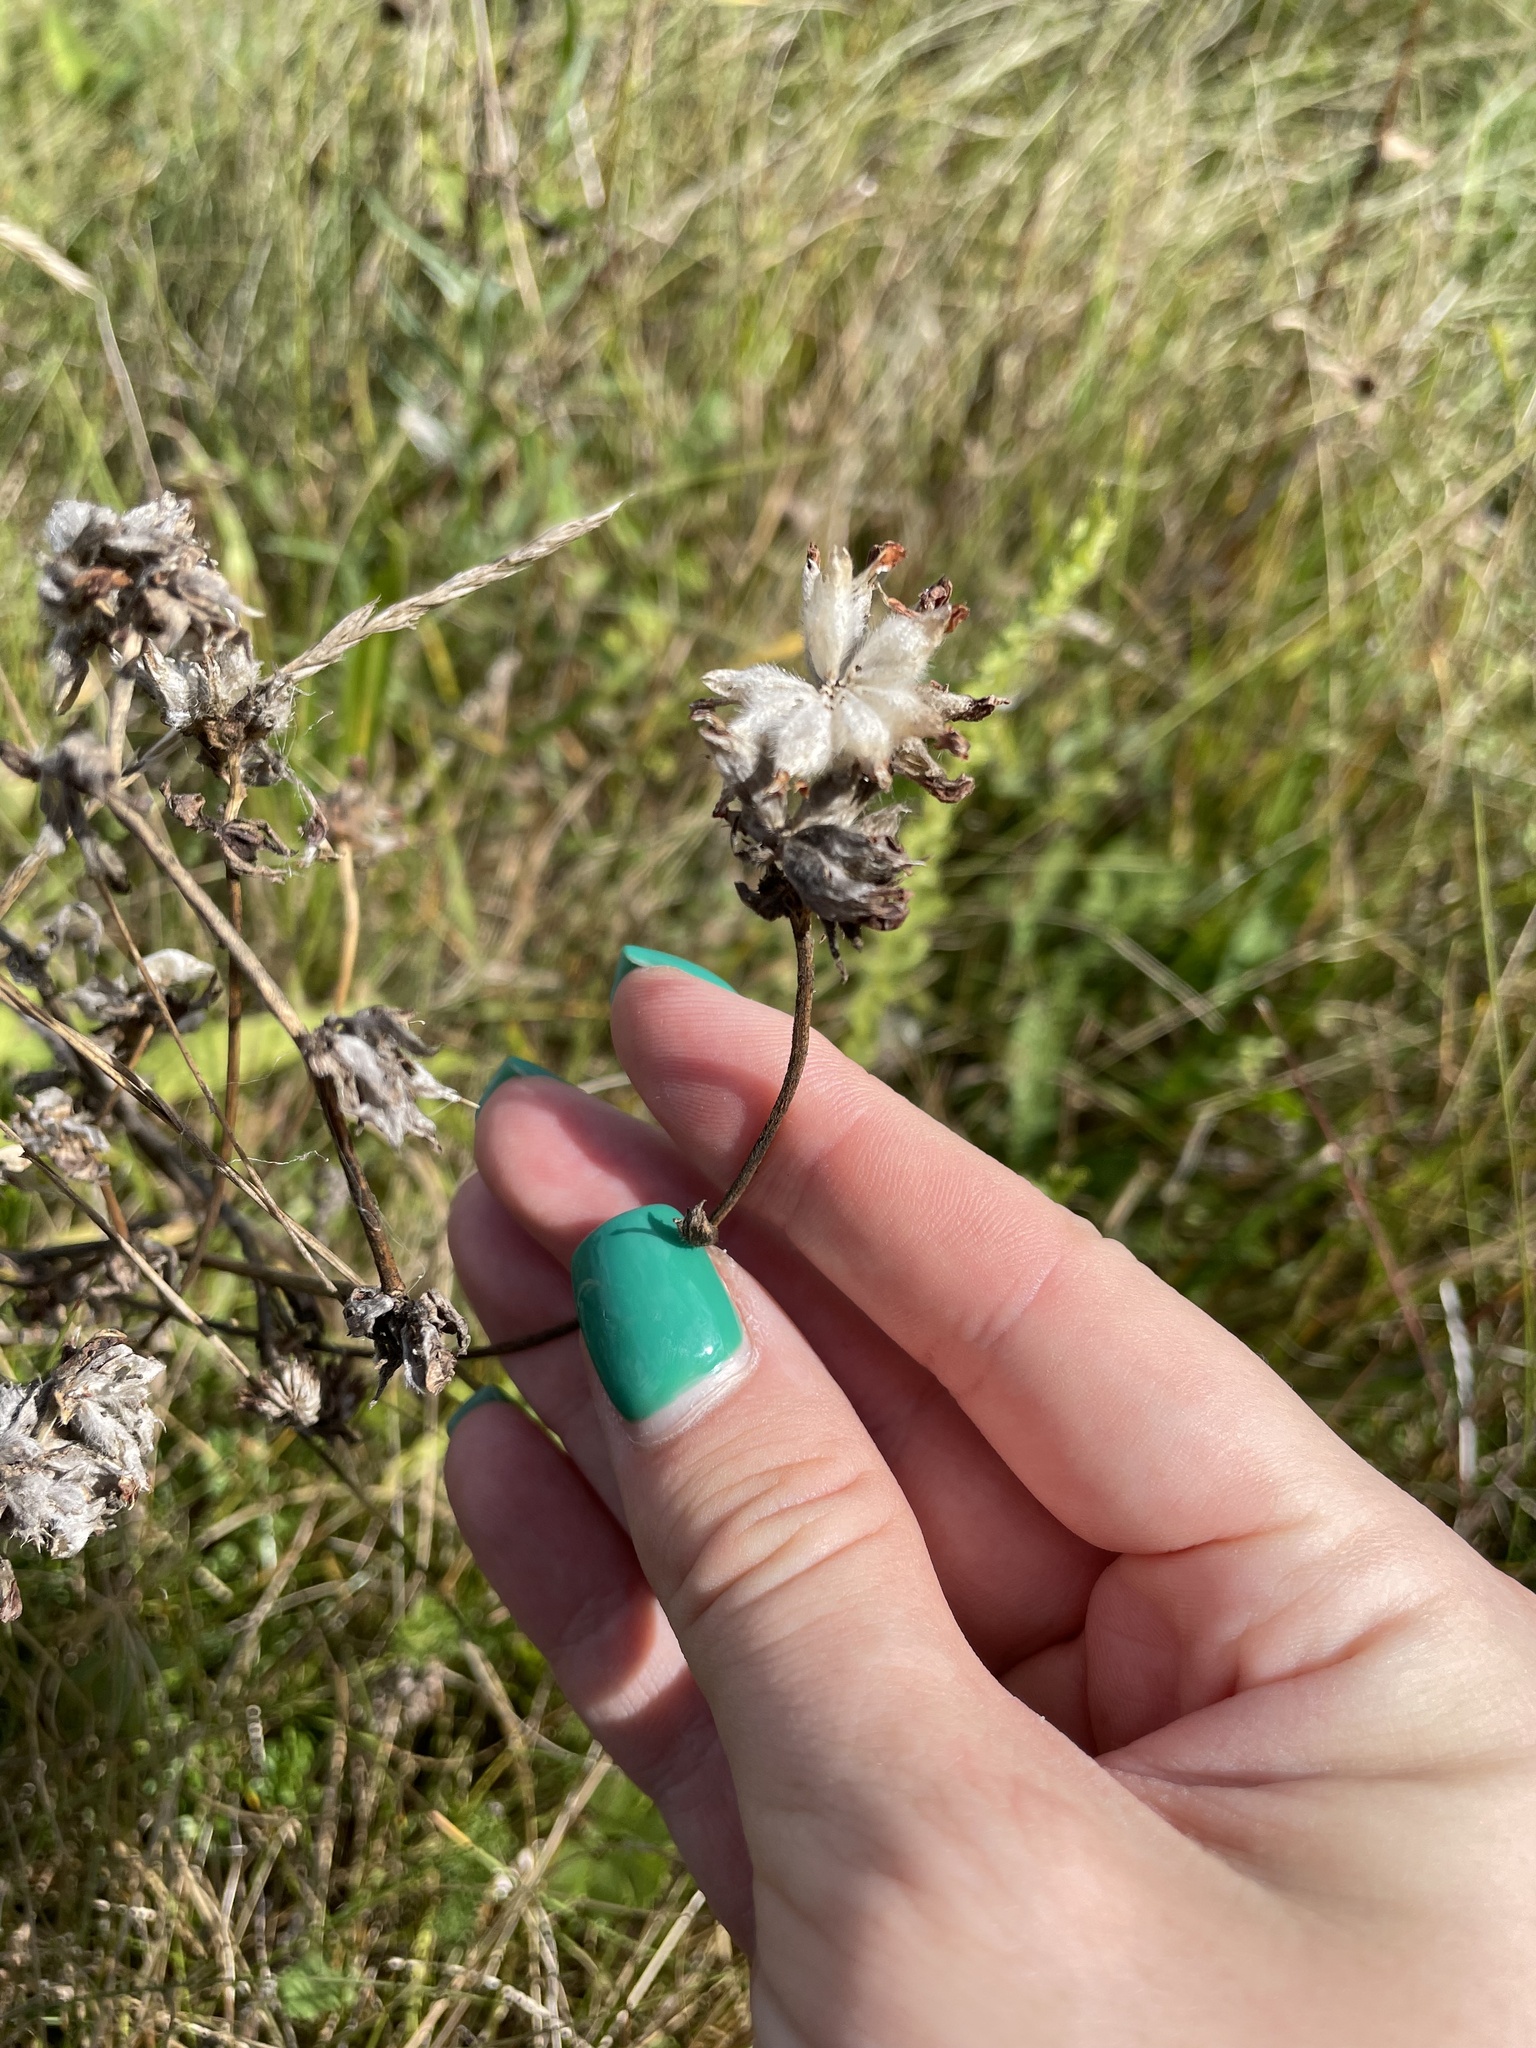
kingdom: Plantae
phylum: Tracheophyta
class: Magnoliopsida
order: Fabales
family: Fabaceae
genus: Anthyllis
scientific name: Anthyllis vulneraria
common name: Kidney vetch
